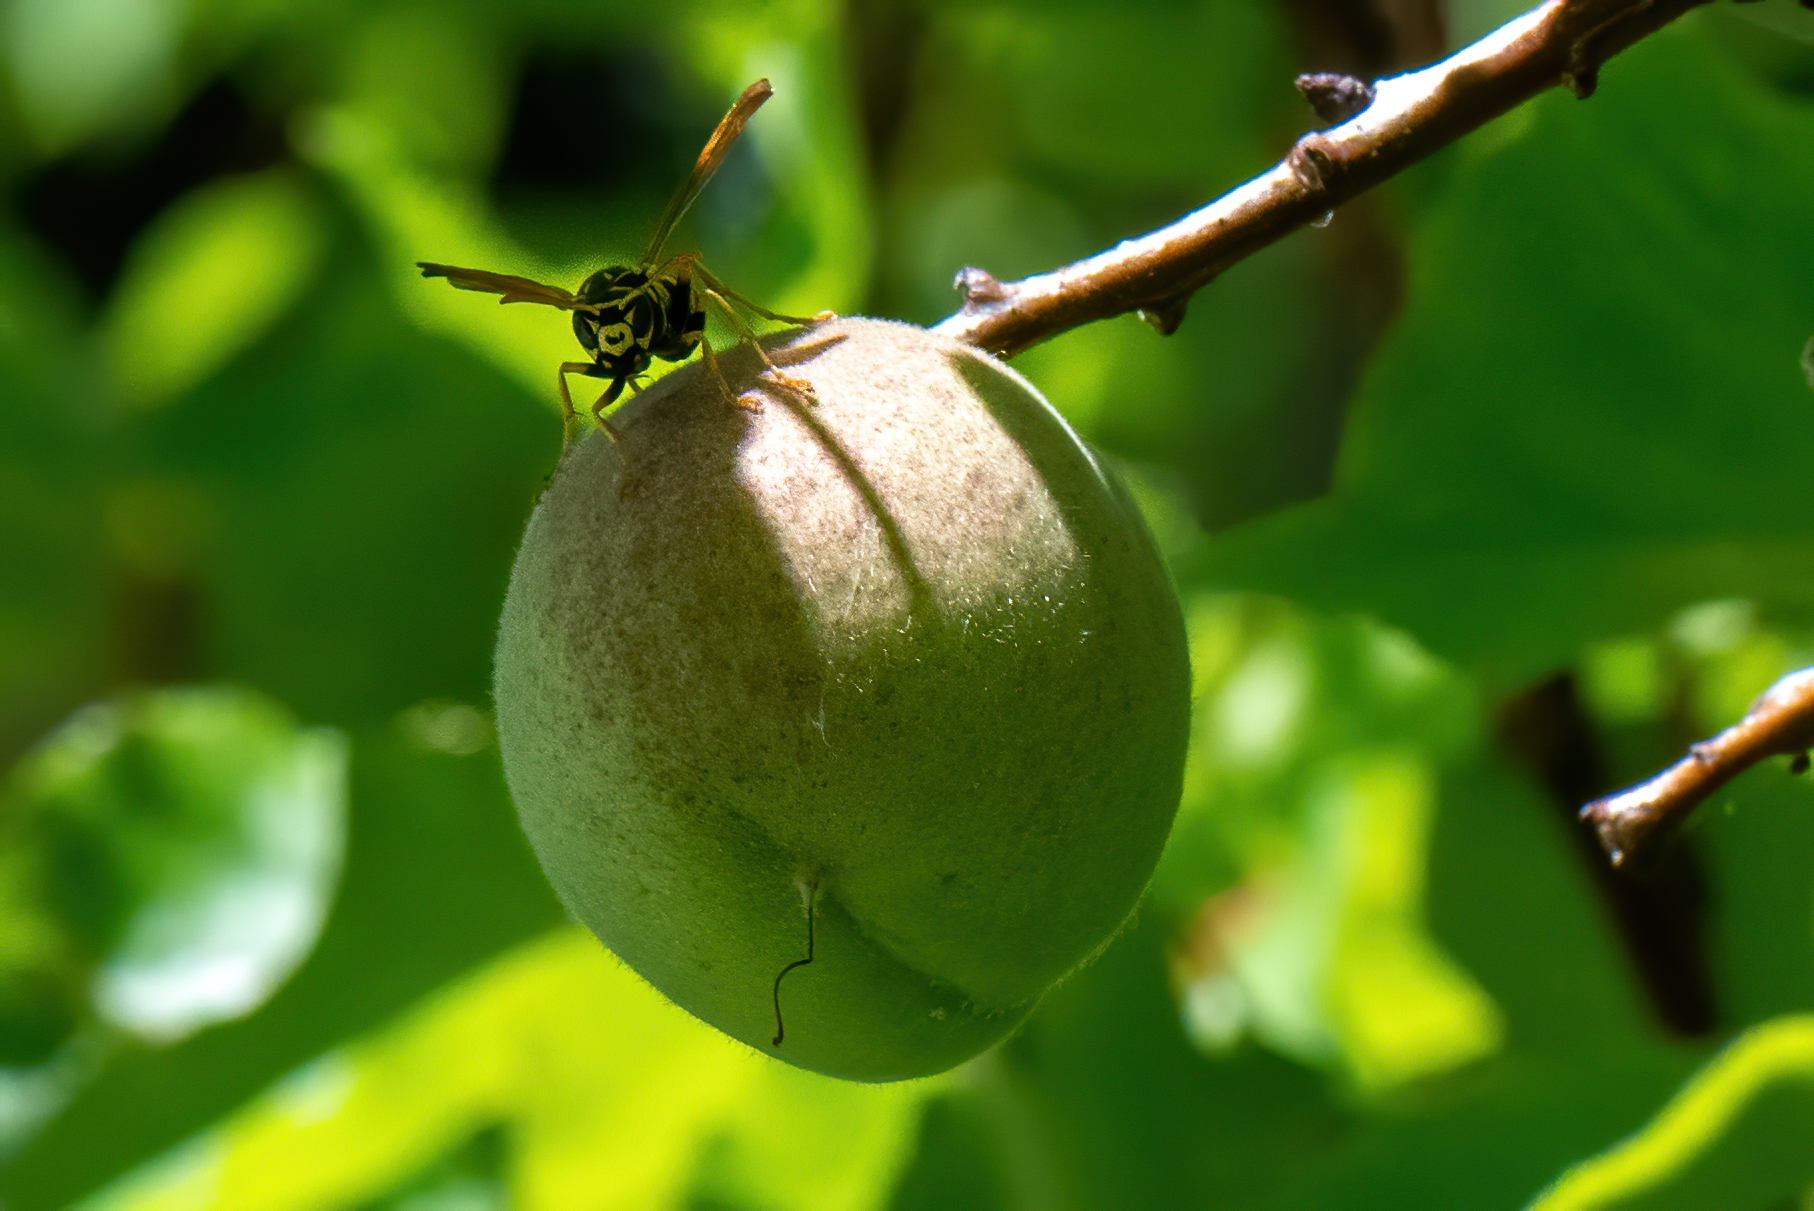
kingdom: Animalia
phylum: Arthropoda
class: Insecta
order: Hymenoptera
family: Eumenidae
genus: Polistes
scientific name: Polistes dominula
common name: Paper wasp
